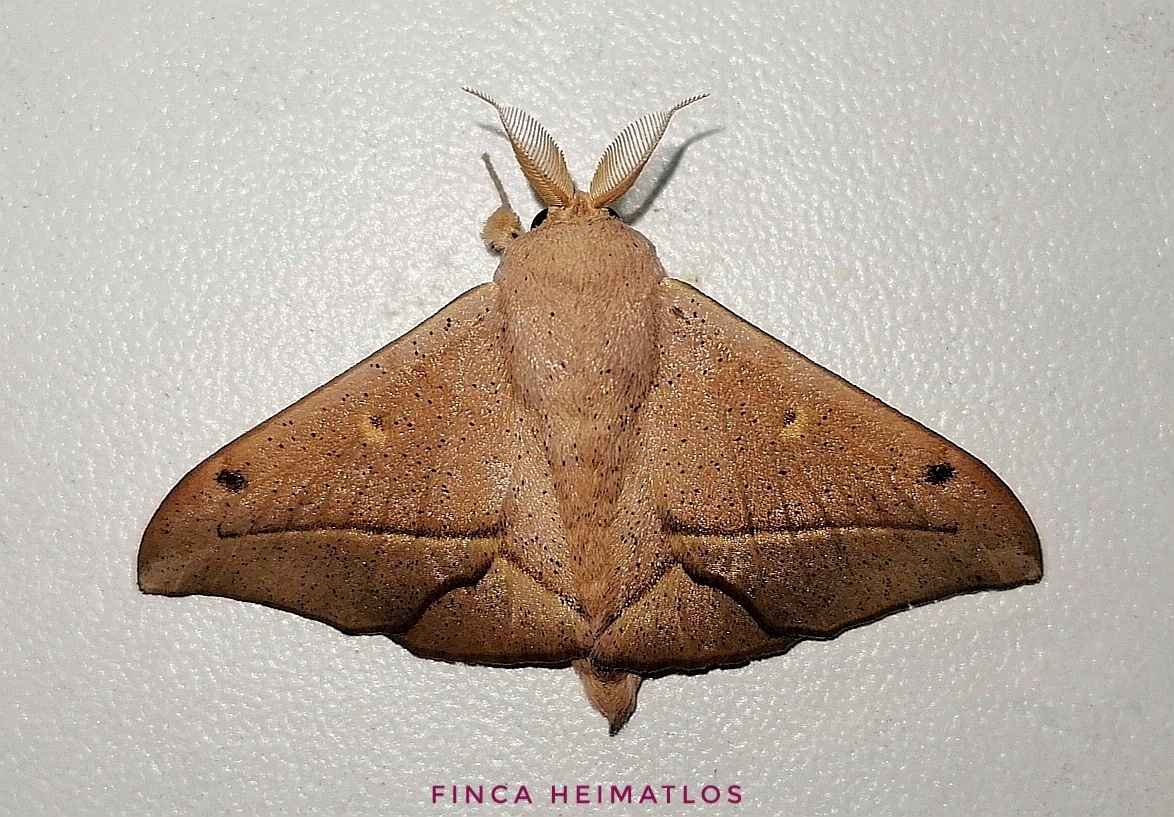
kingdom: Animalia
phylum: Arthropoda
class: Insecta
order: Lepidoptera
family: Mimallonidae
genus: Druentica
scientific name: Druentica partha
